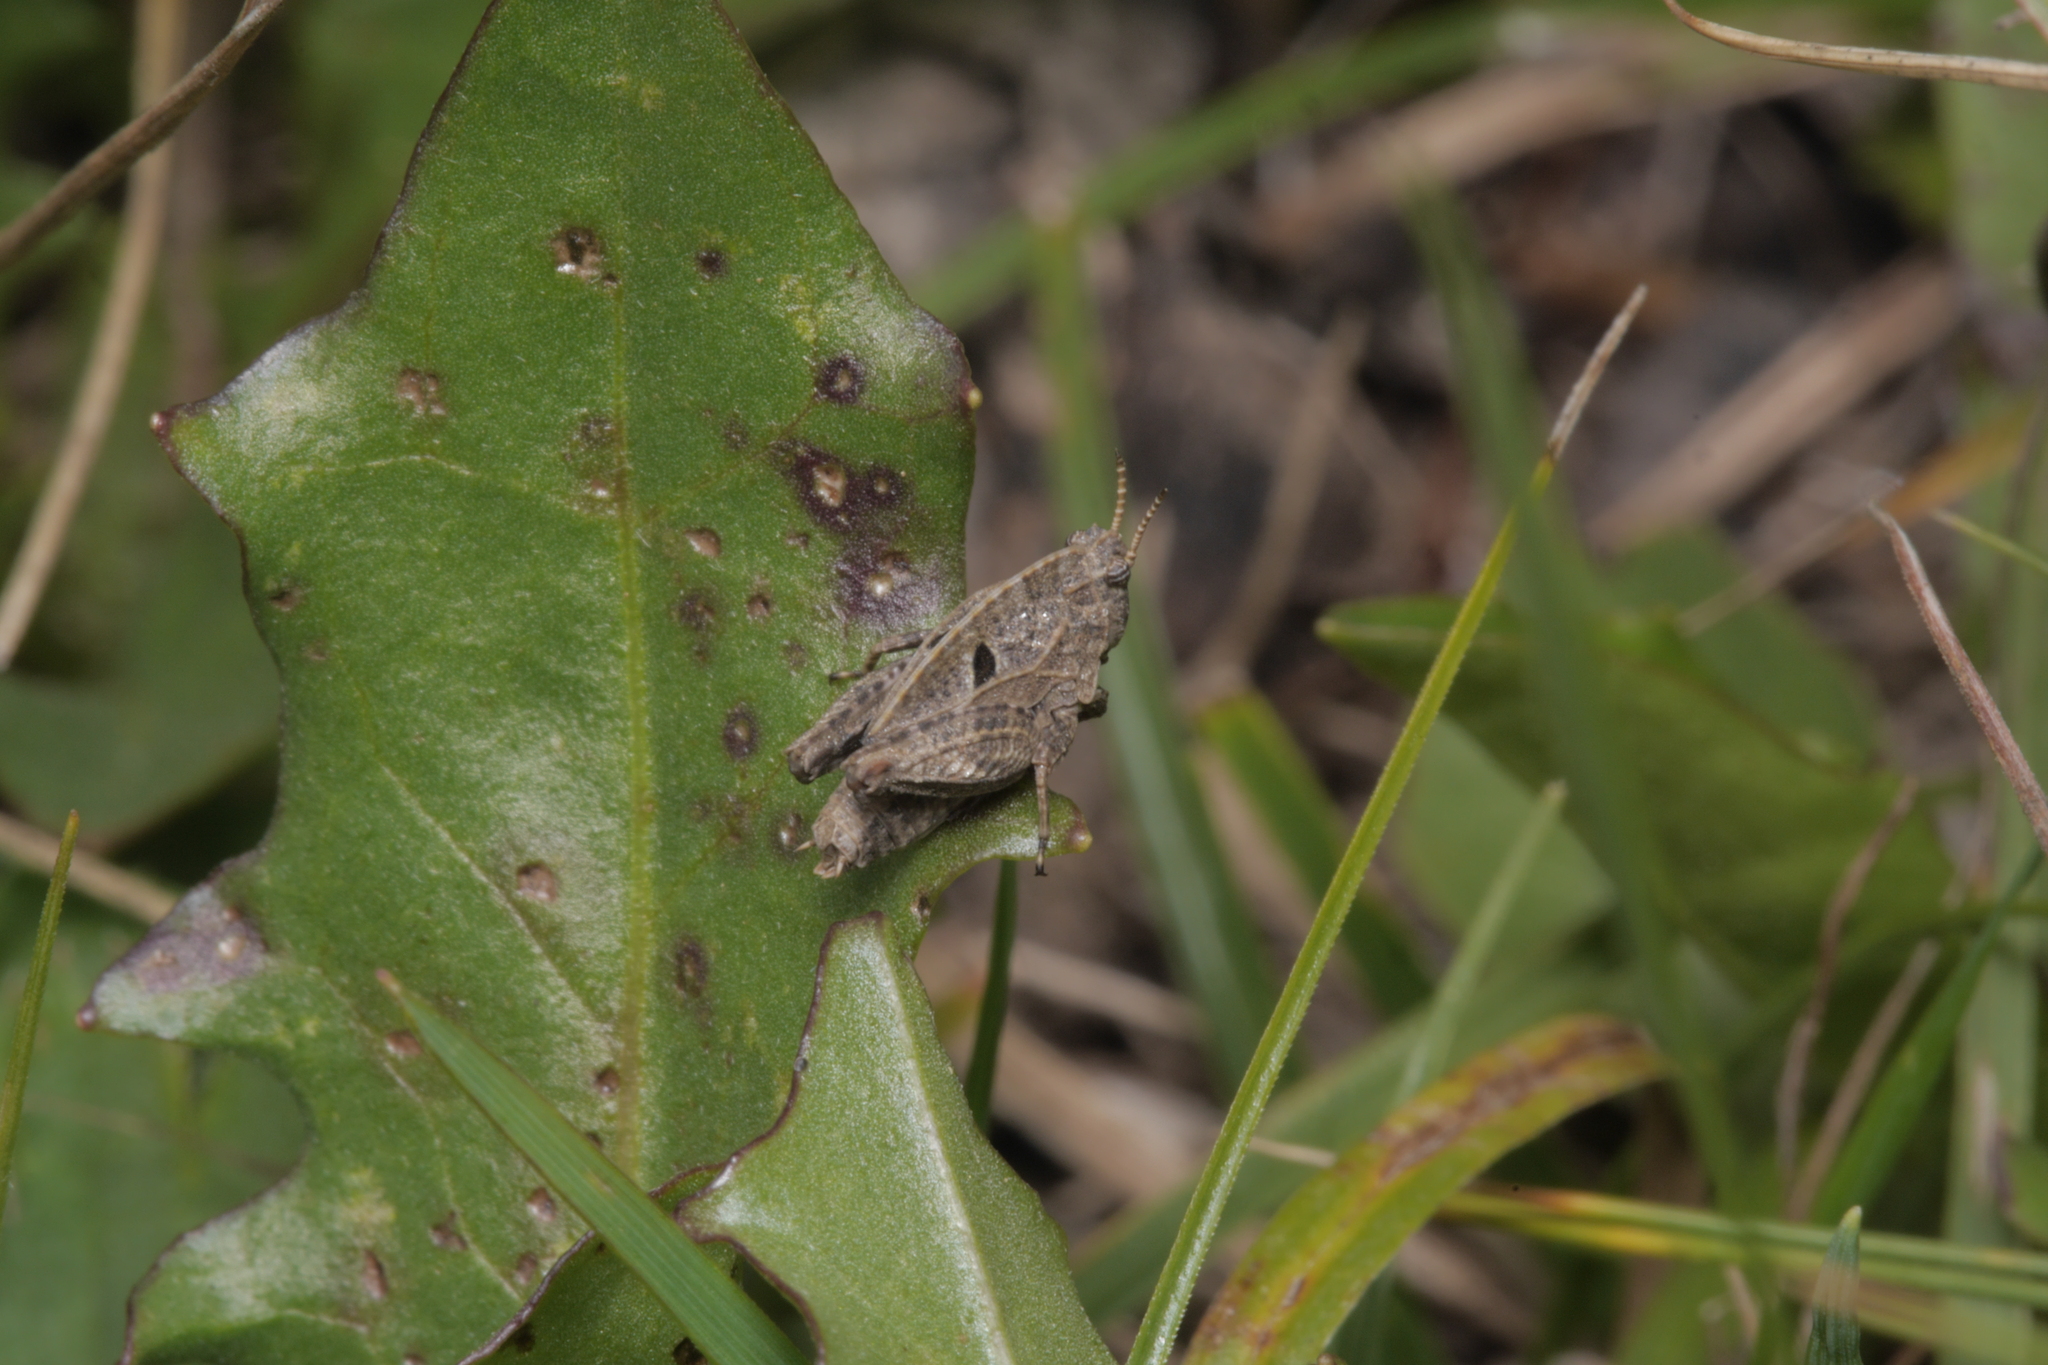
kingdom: Animalia
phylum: Arthropoda
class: Insecta
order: Orthoptera
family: Tetrigidae
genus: Tetrix
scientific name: Tetrix bipunctata
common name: Two-spotted groundhopper
